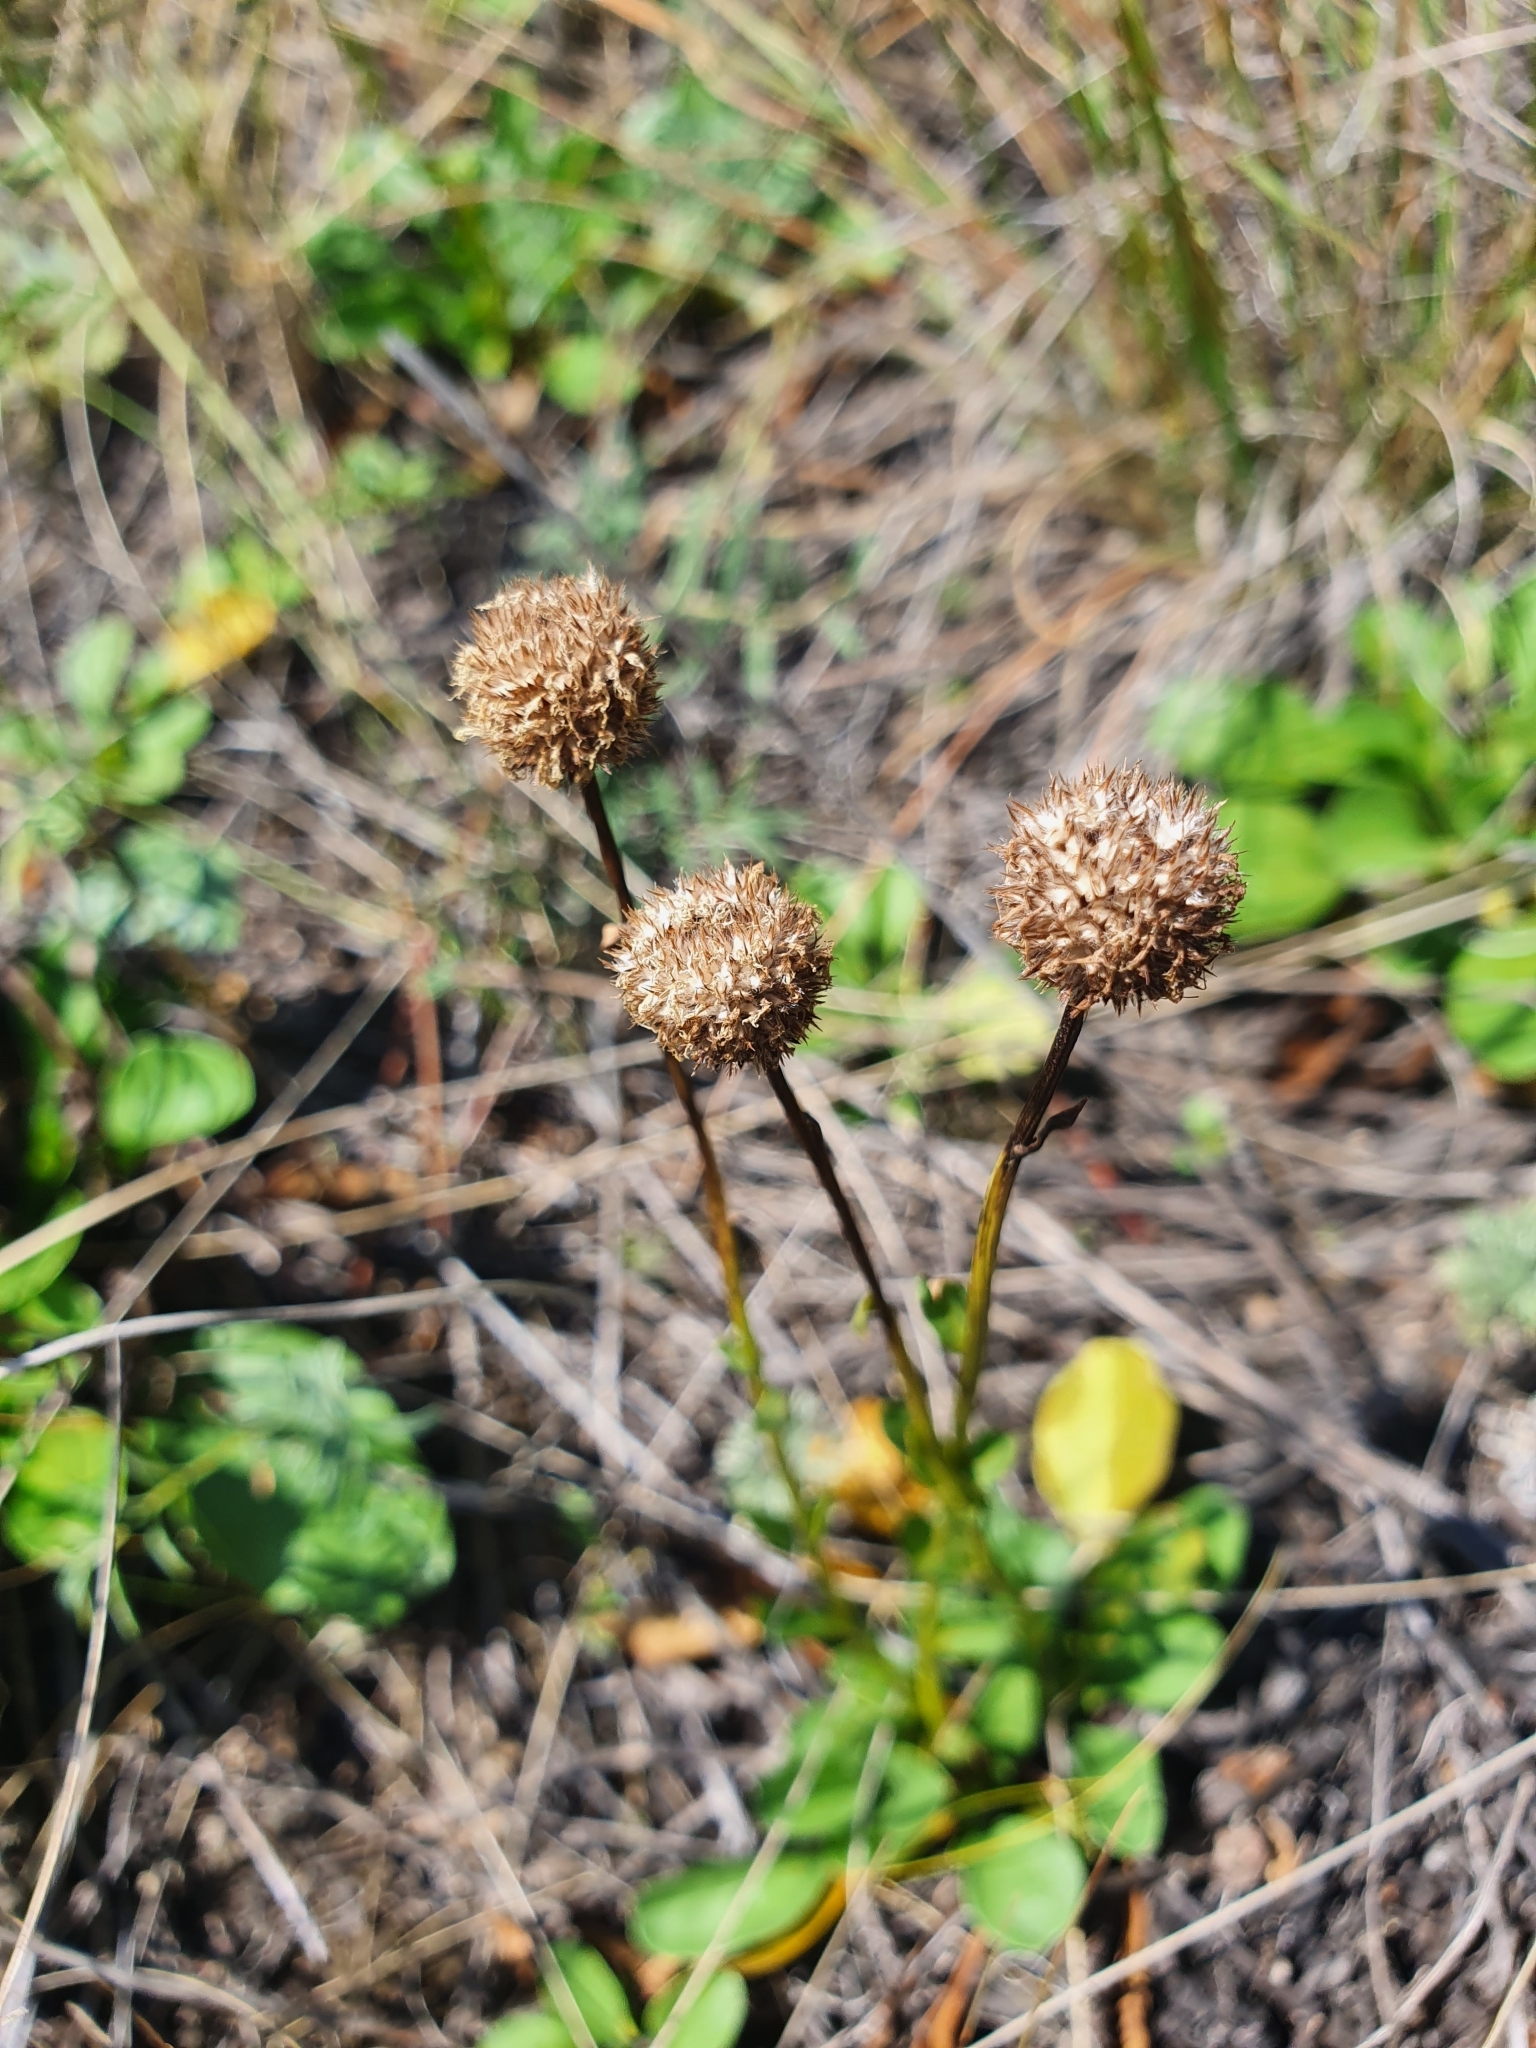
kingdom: Plantae
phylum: Tracheophyta
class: Magnoliopsida
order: Lamiales
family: Plantaginaceae
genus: Globularia
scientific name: Globularia bisnagarica
